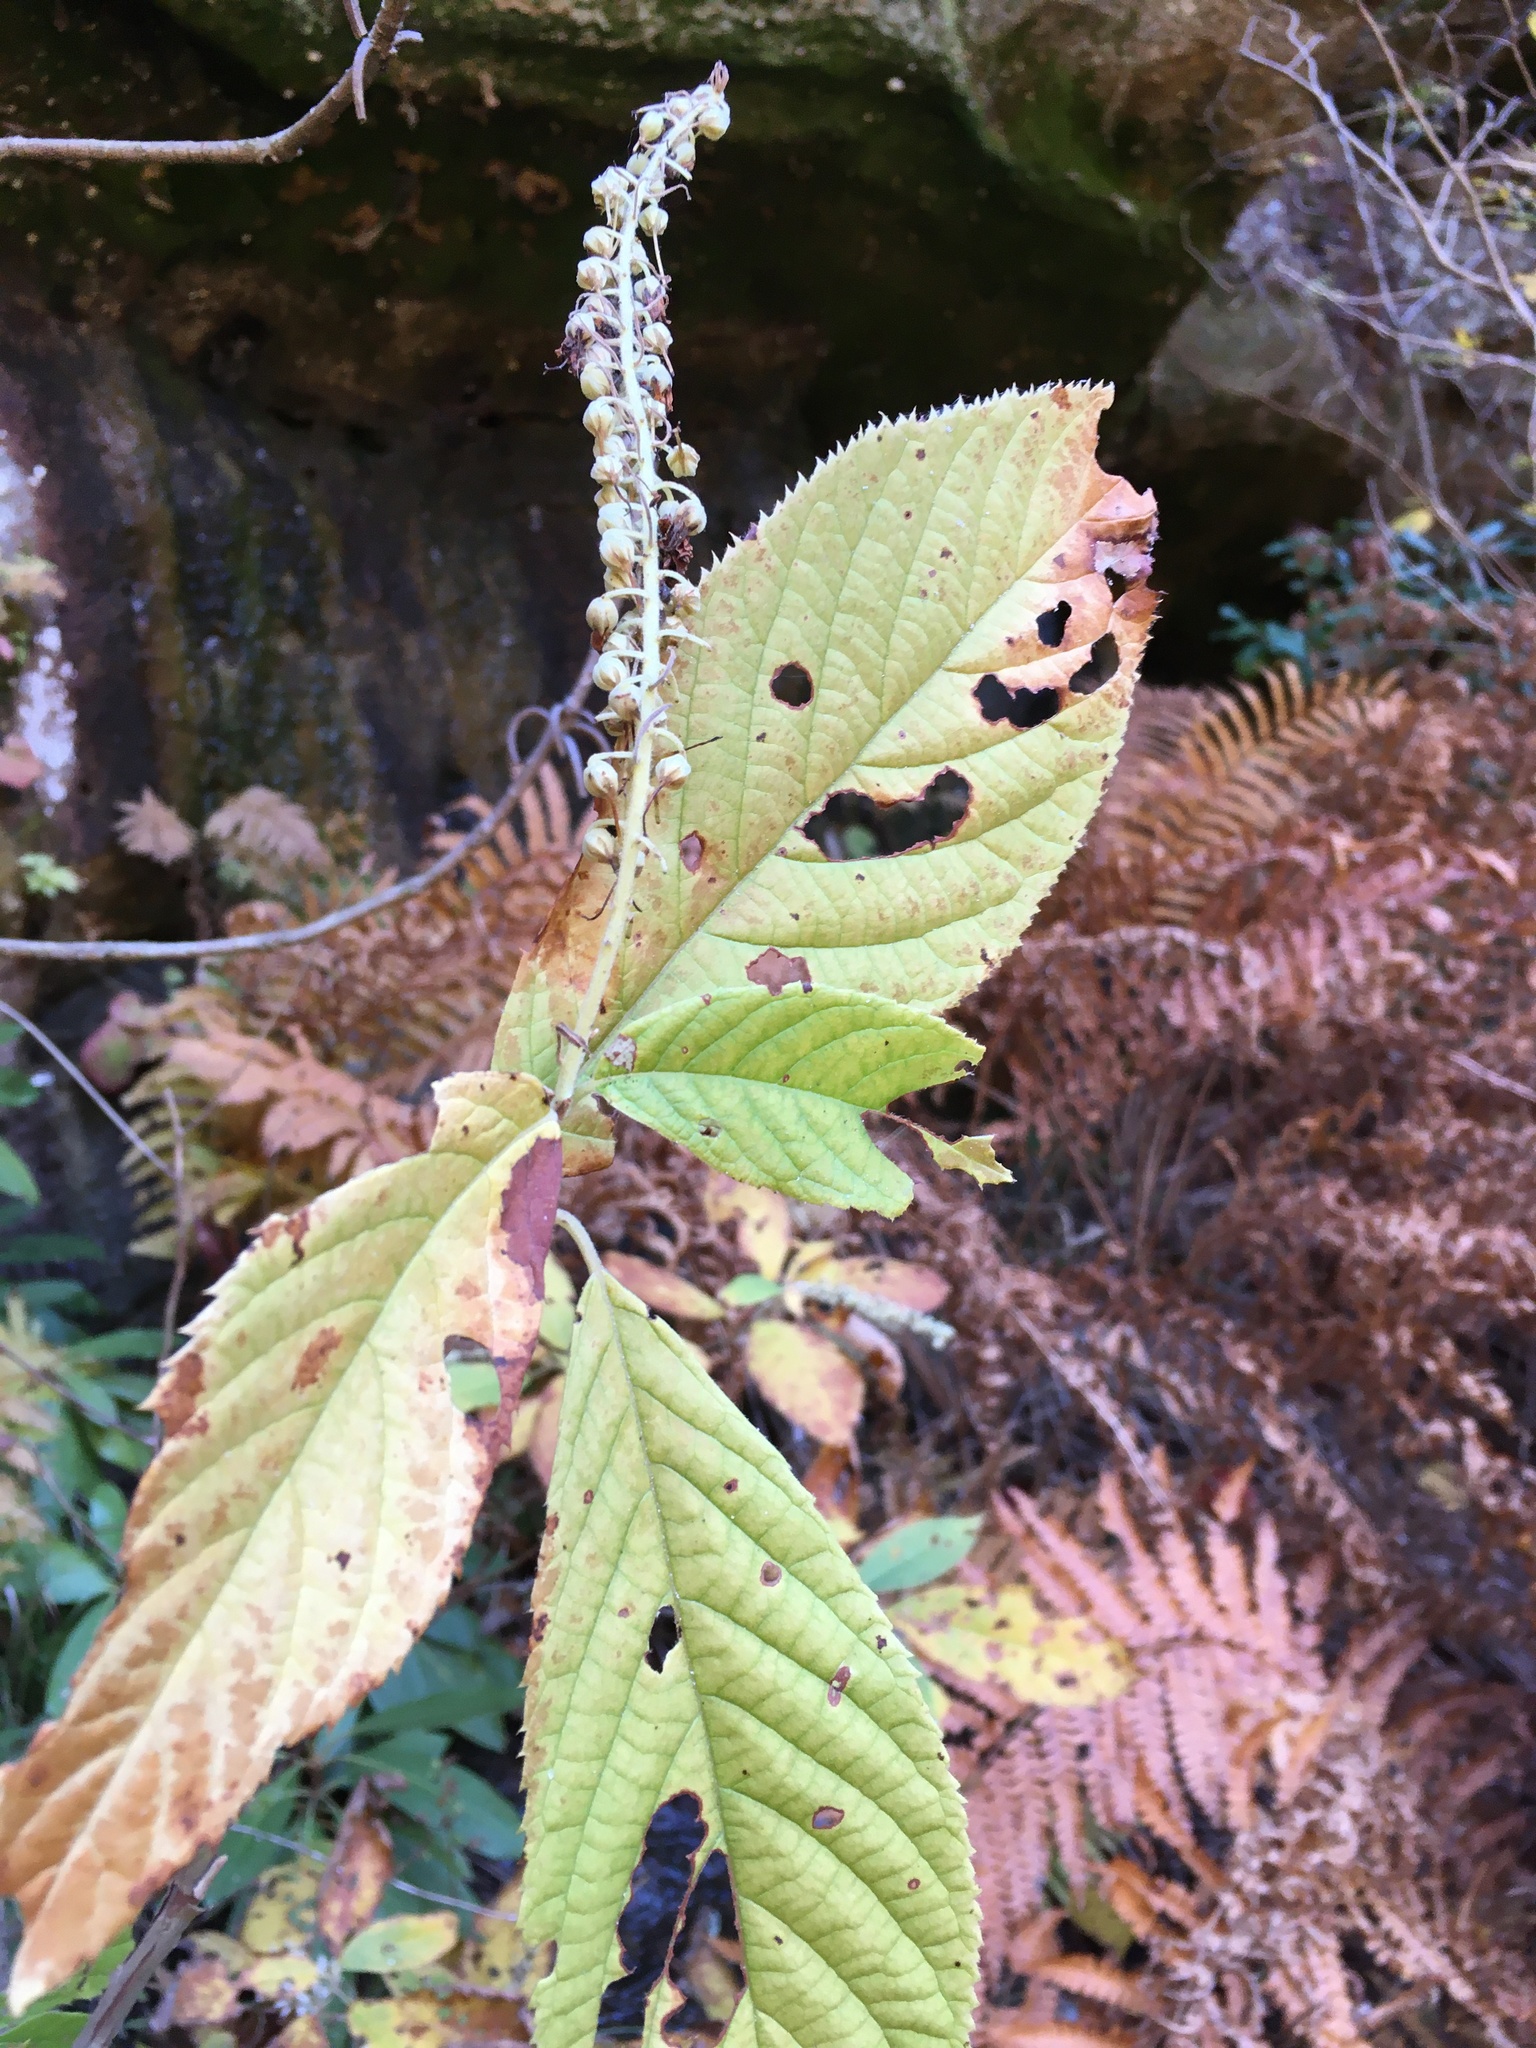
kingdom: Plantae
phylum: Tracheophyta
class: Magnoliopsida
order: Ericales
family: Clethraceae
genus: Clethra
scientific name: Clethra acuminata
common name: Mountain sweet pepperbush
